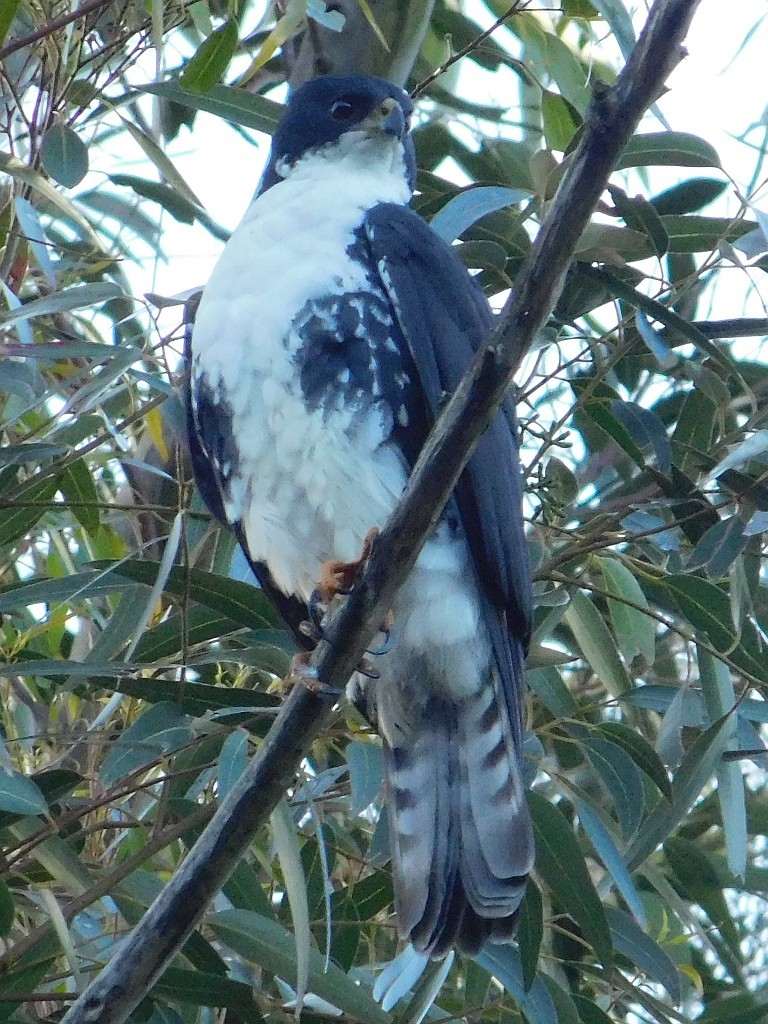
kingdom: Animalia
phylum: Chordata
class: Aves
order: Accipitriformes
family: Accipitridae
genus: Accipiter
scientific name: Accipiter melanoleucus
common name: Black sparrowhawk
